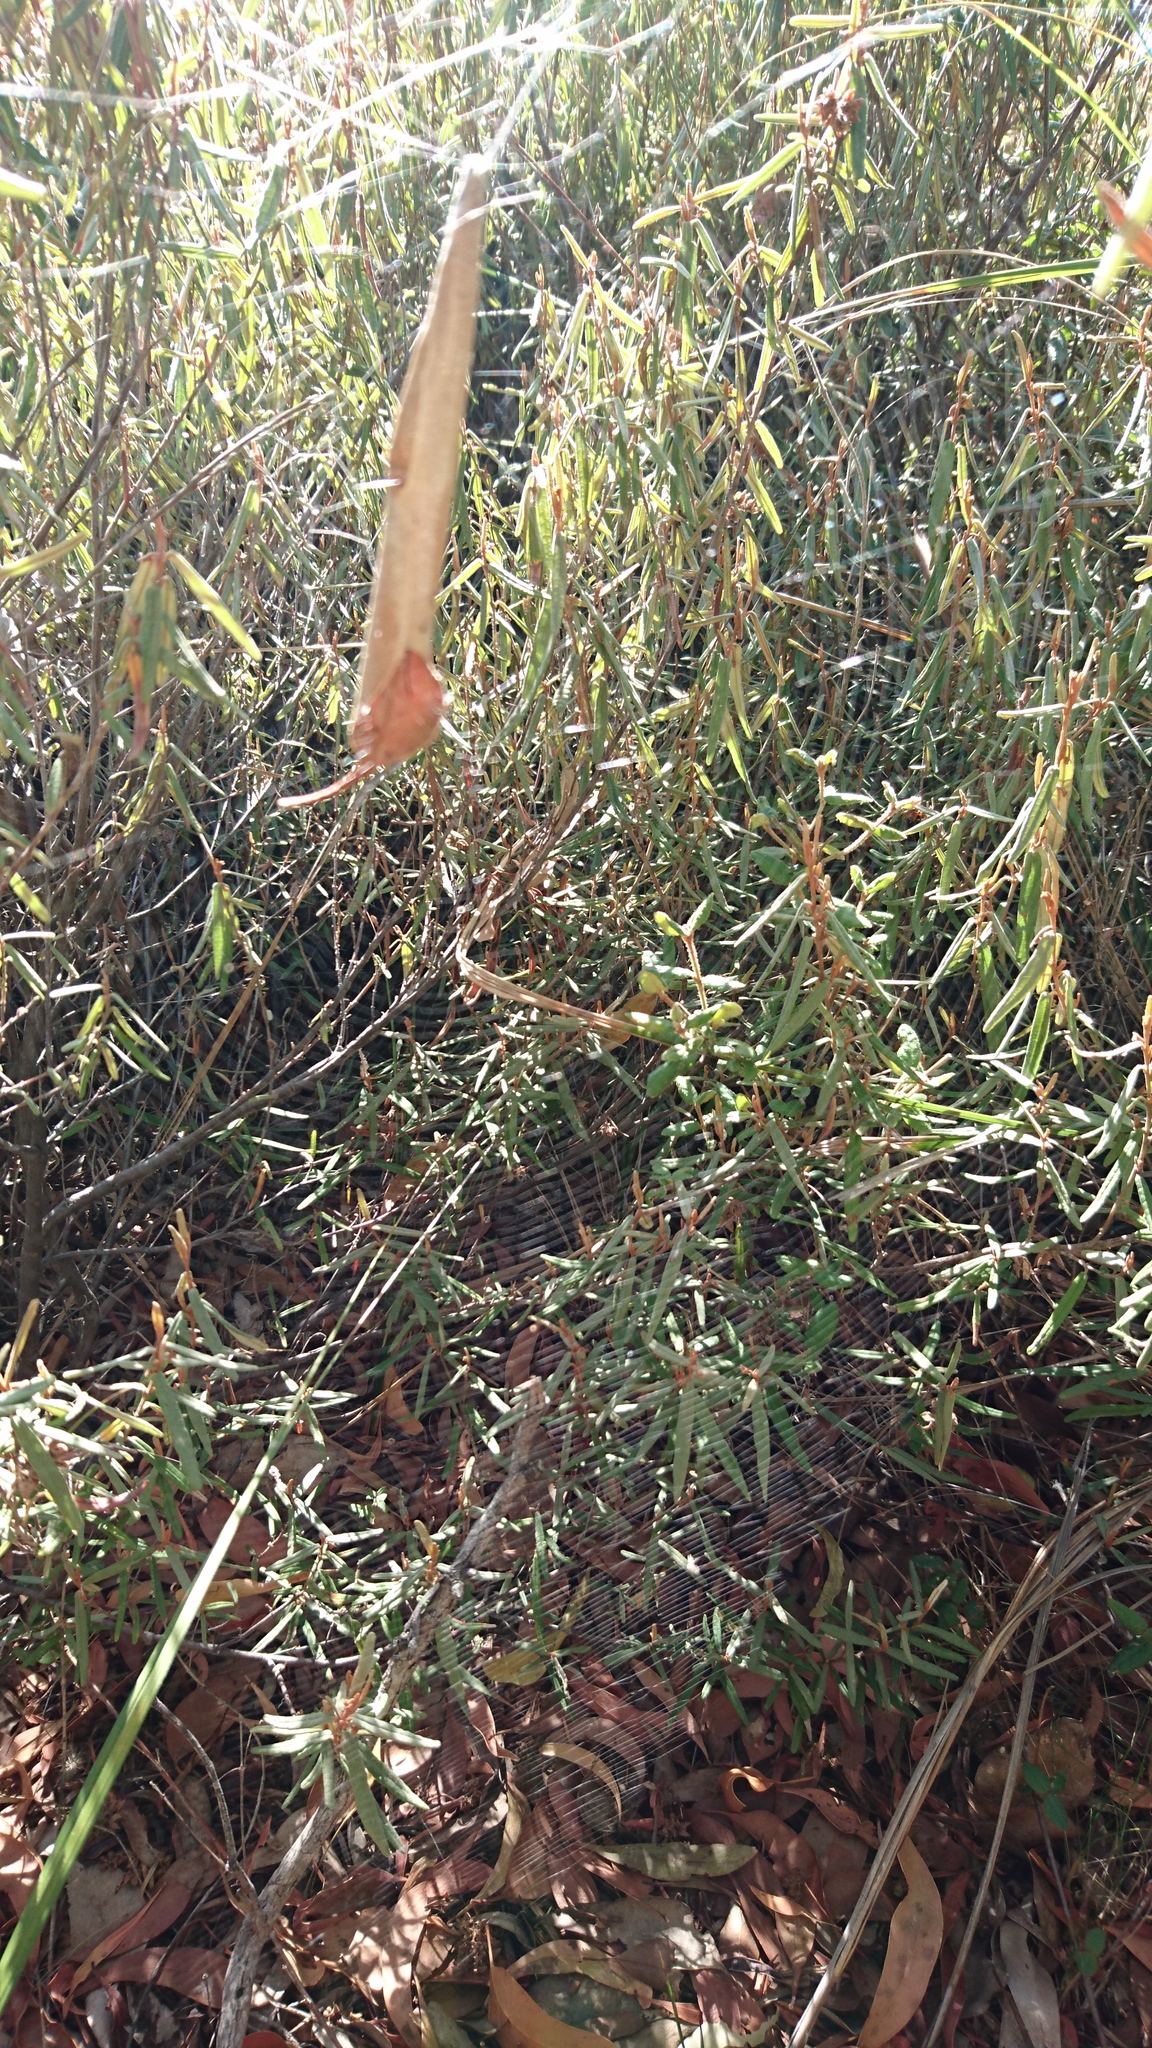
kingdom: Animalia
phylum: Arthropoda
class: Arachnida
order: Araneae
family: Araneidae
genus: Phonognatha
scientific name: Phonognatha graeffei
